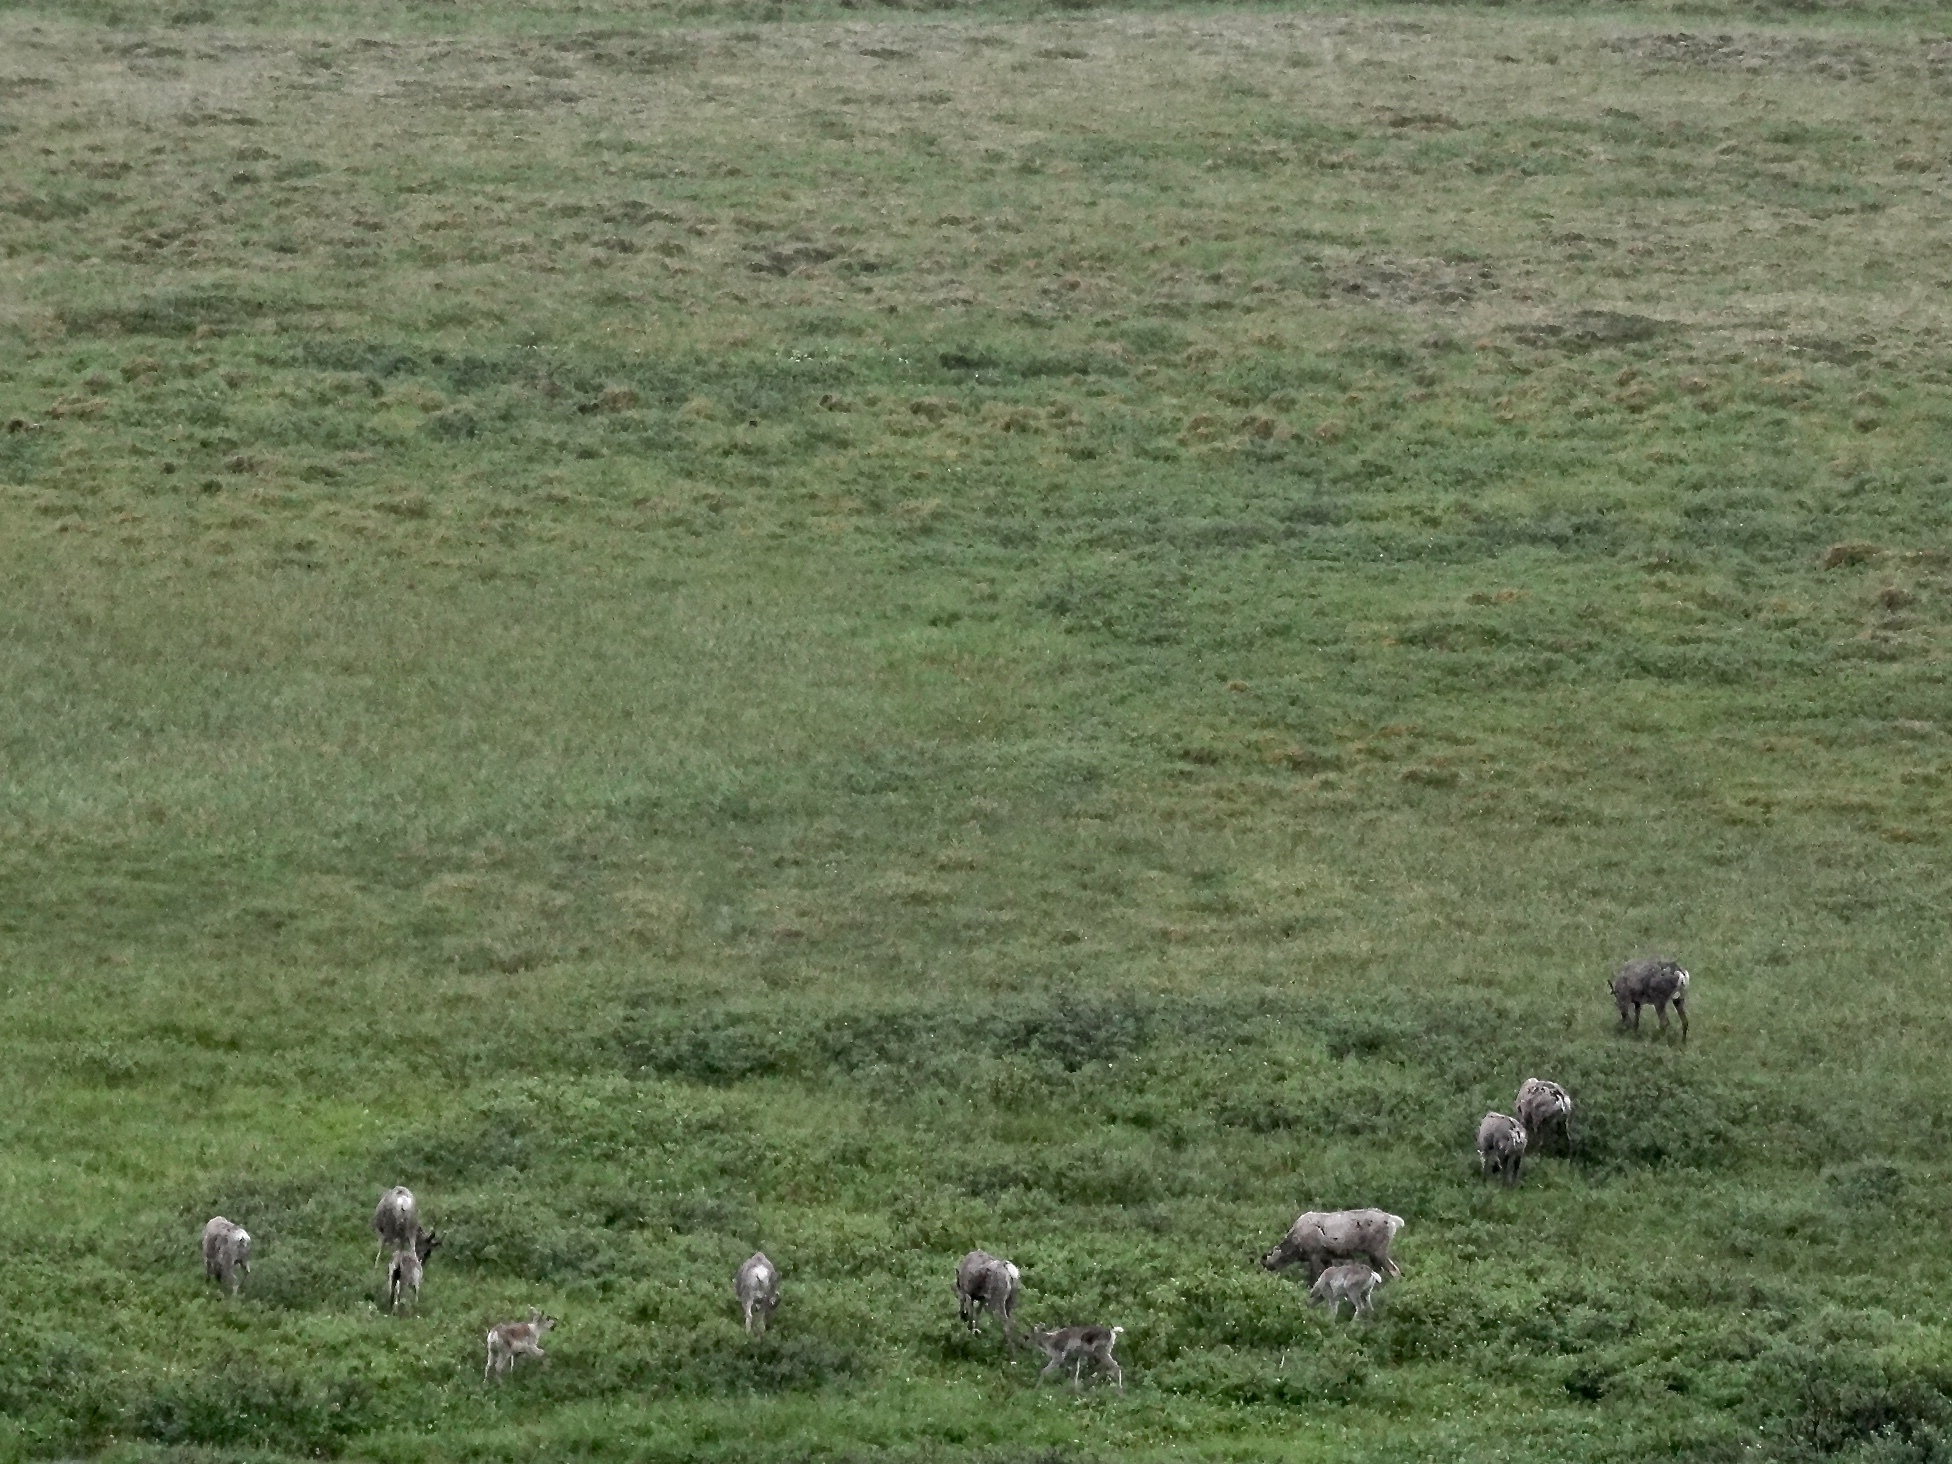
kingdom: Animalia
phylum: Chordata
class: Mammalia
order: Artiodactyla
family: Cervidae
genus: Rangifer
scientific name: Rangifer tarandus
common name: Reindeer
